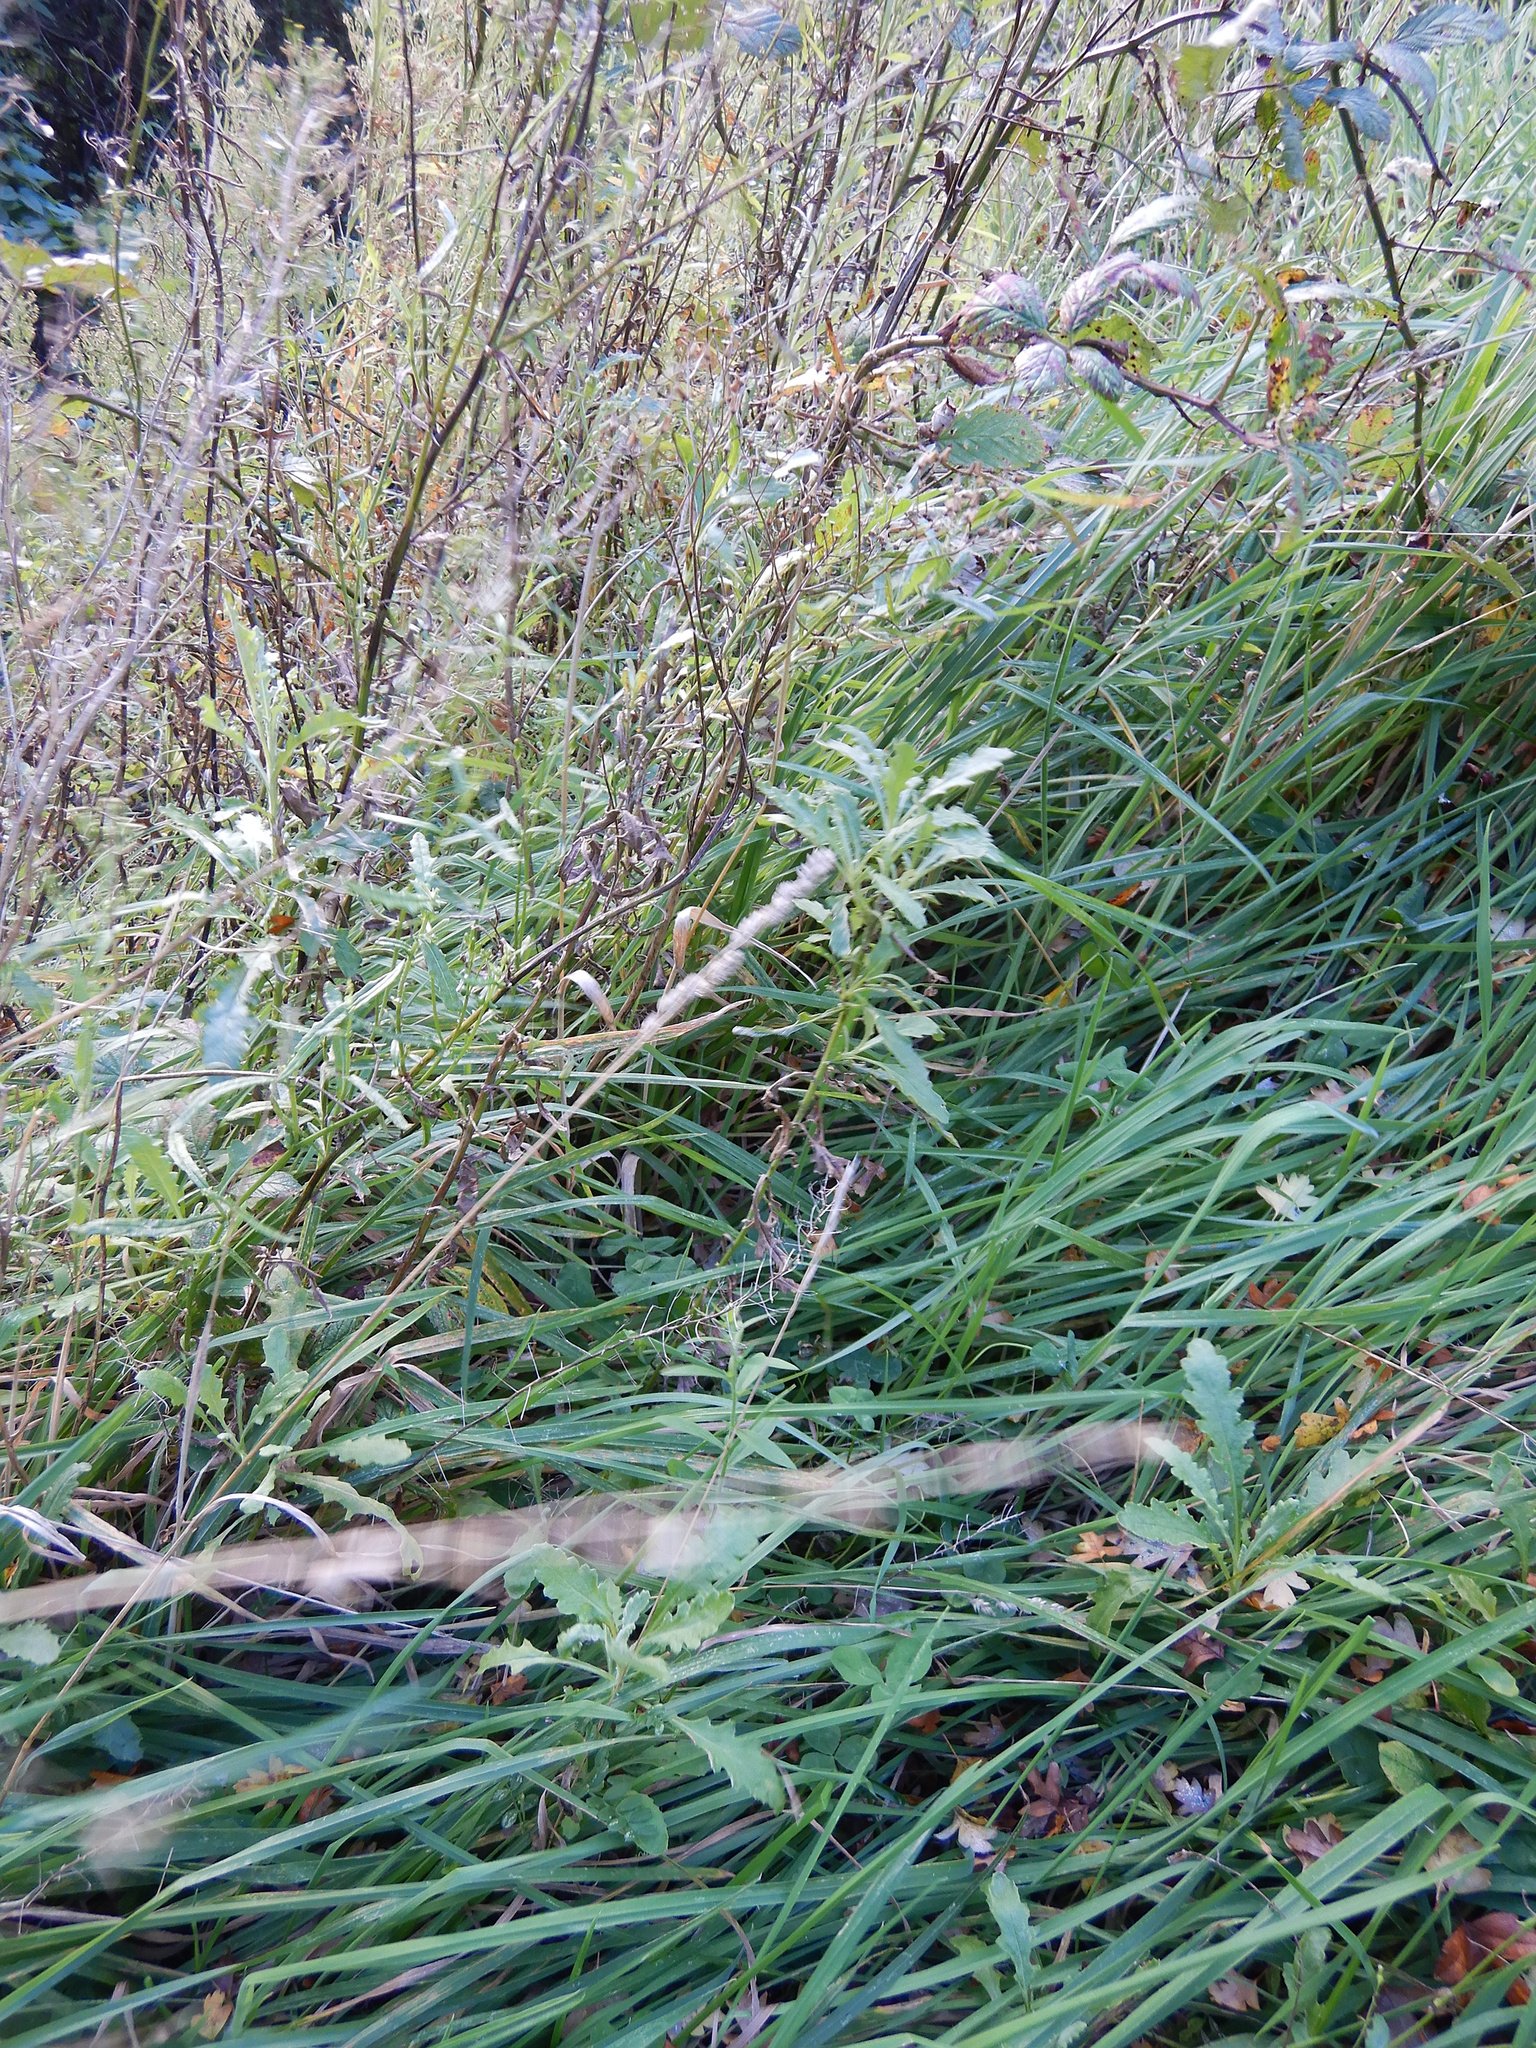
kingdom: Plantae
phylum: Tracheophyta
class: Magnoliopsida
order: Asterales
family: Asteraceae
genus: Senecio
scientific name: Senecio glomeratus
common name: Cutleaf burnweed
